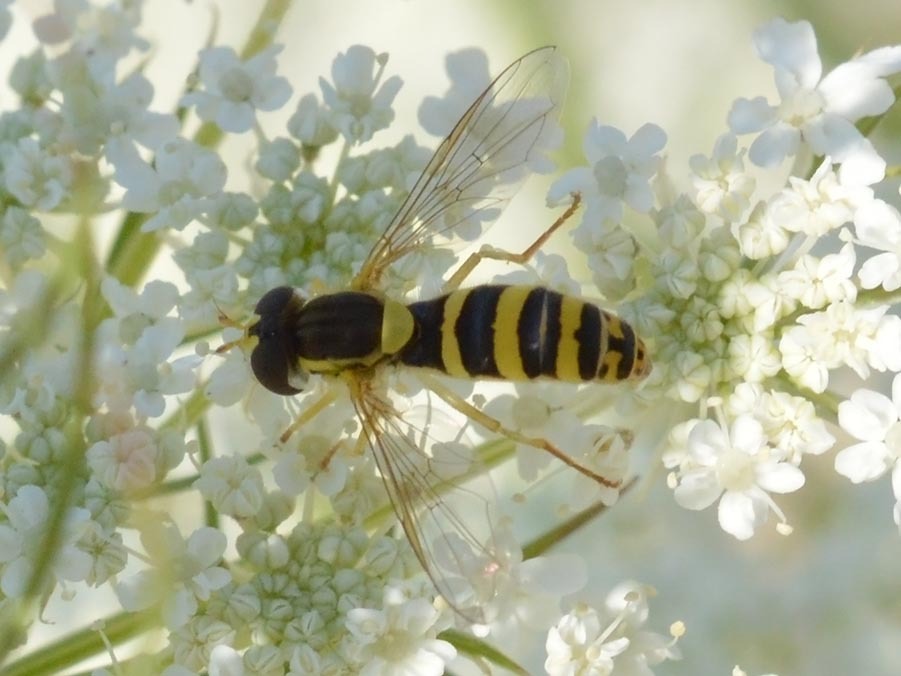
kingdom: Animalia
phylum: Arthropoda
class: Insecta
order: Diptera
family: Syrphidae
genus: Sphaerophoria
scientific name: Sphaerophoria
